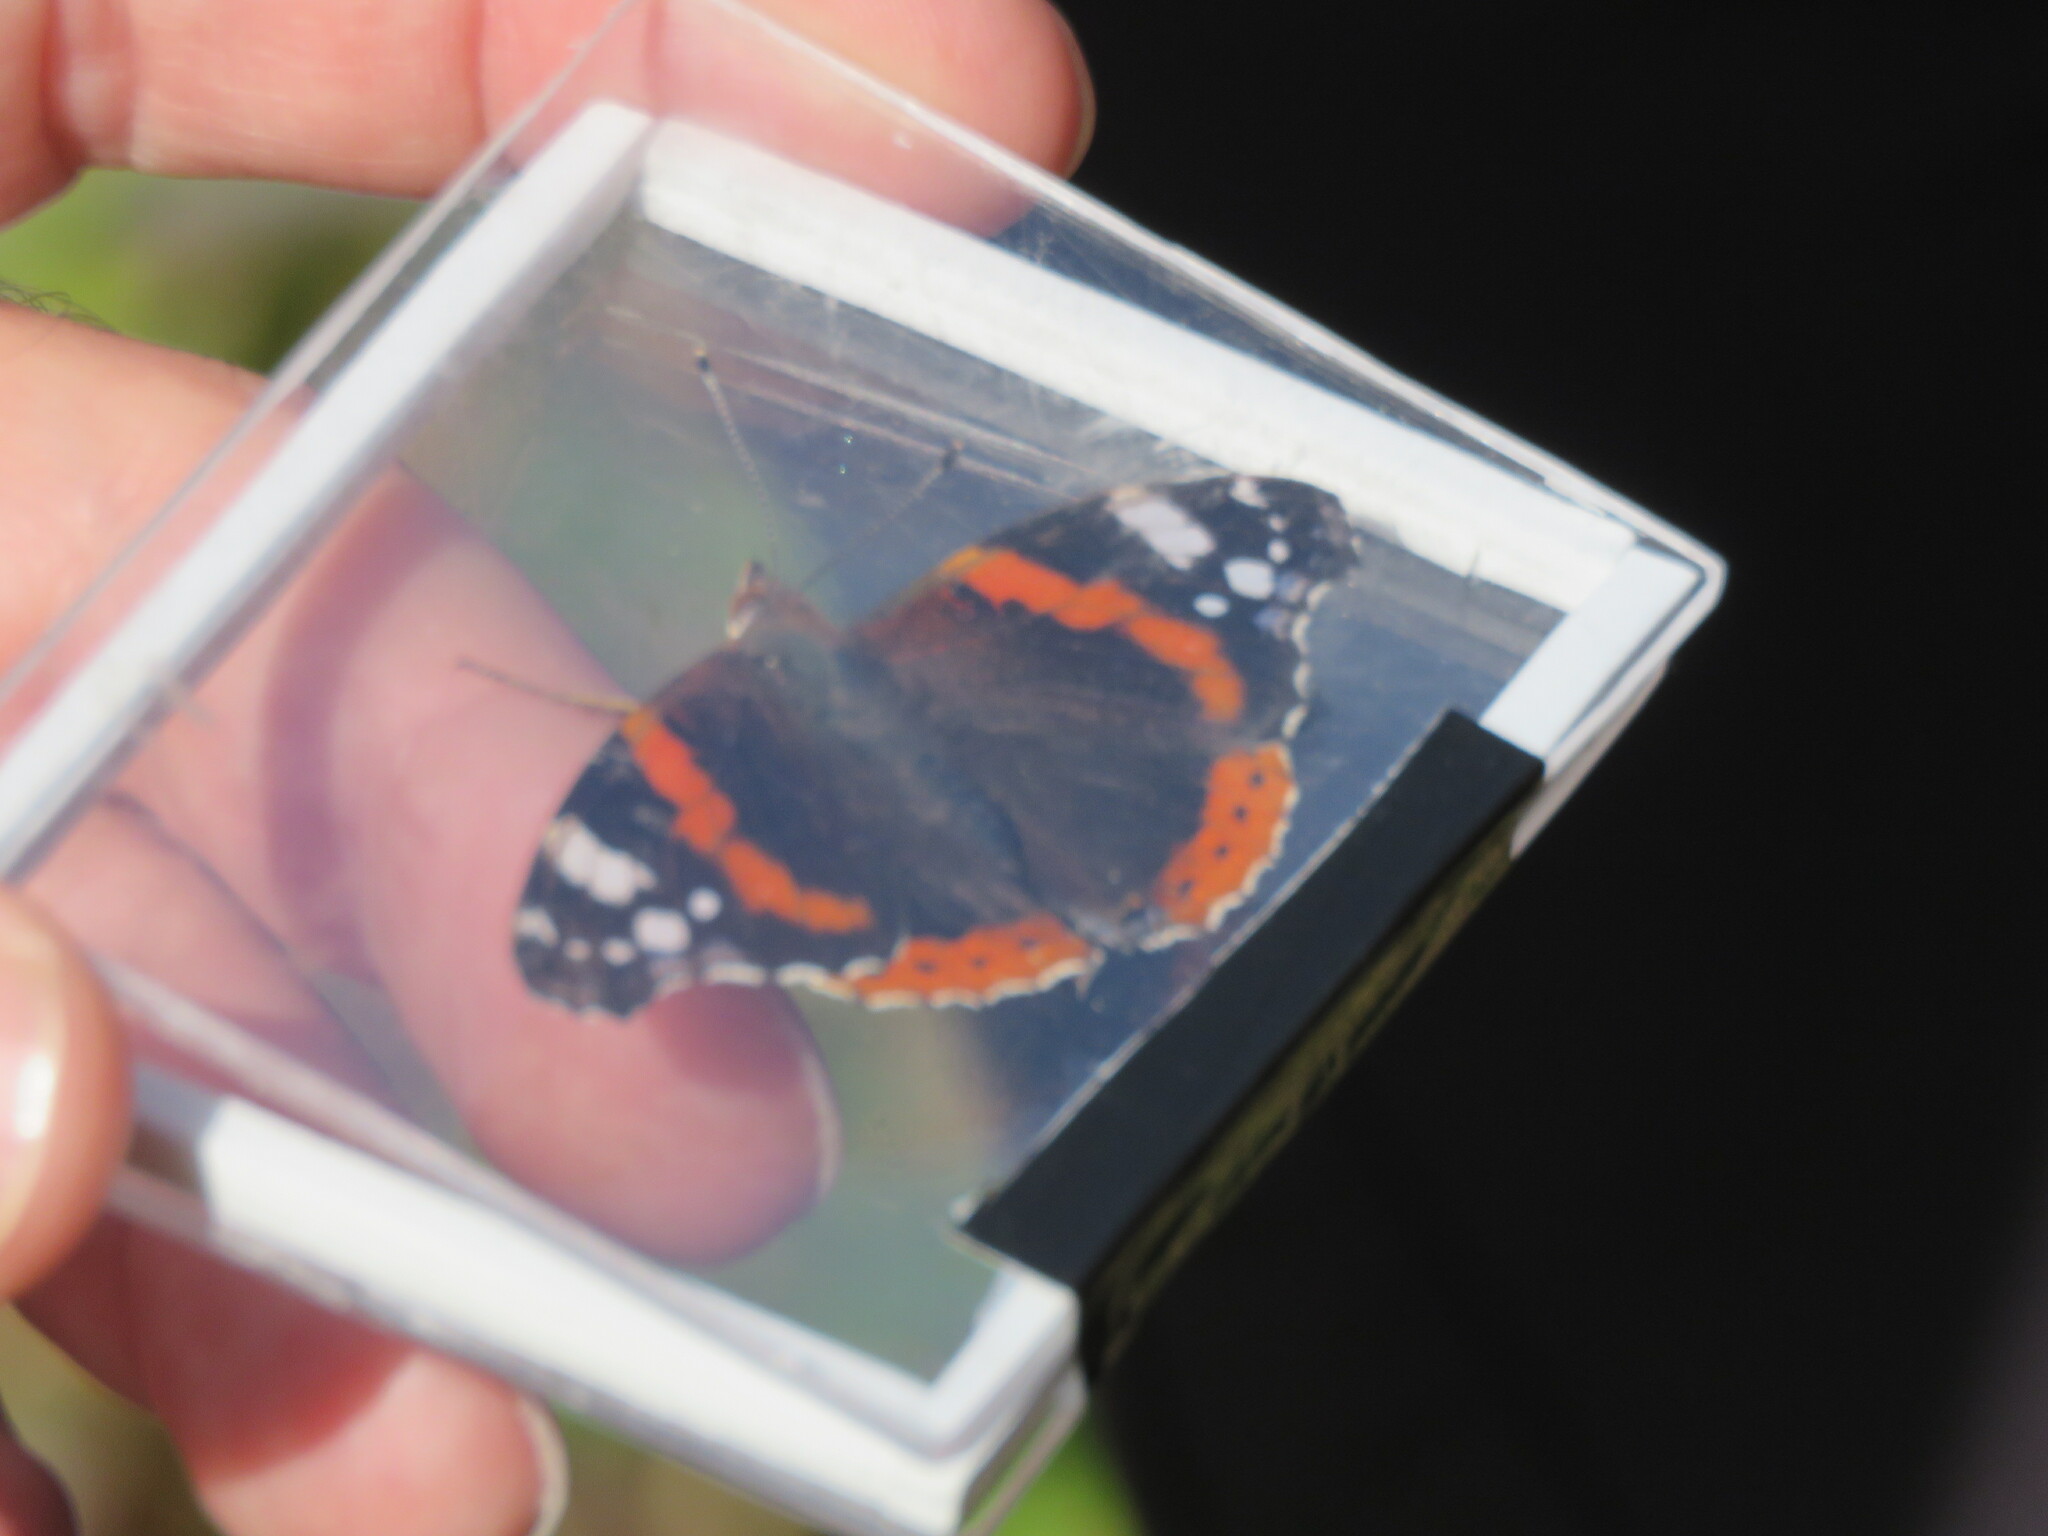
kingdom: Animalia
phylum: Arthropoda
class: Insecta
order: Lepidoptera
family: Nymphalidae
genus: Vanessa
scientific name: Vanessa atalanta
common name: Red admiral
